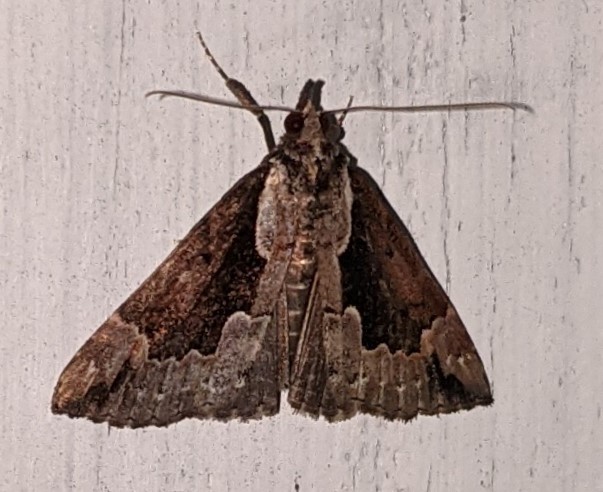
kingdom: Animalia
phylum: Arthropoda
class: Insecta
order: Lepidoptera
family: Erebidae
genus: Hypena
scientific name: Hypena baltimoralis
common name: Baltimore snout
